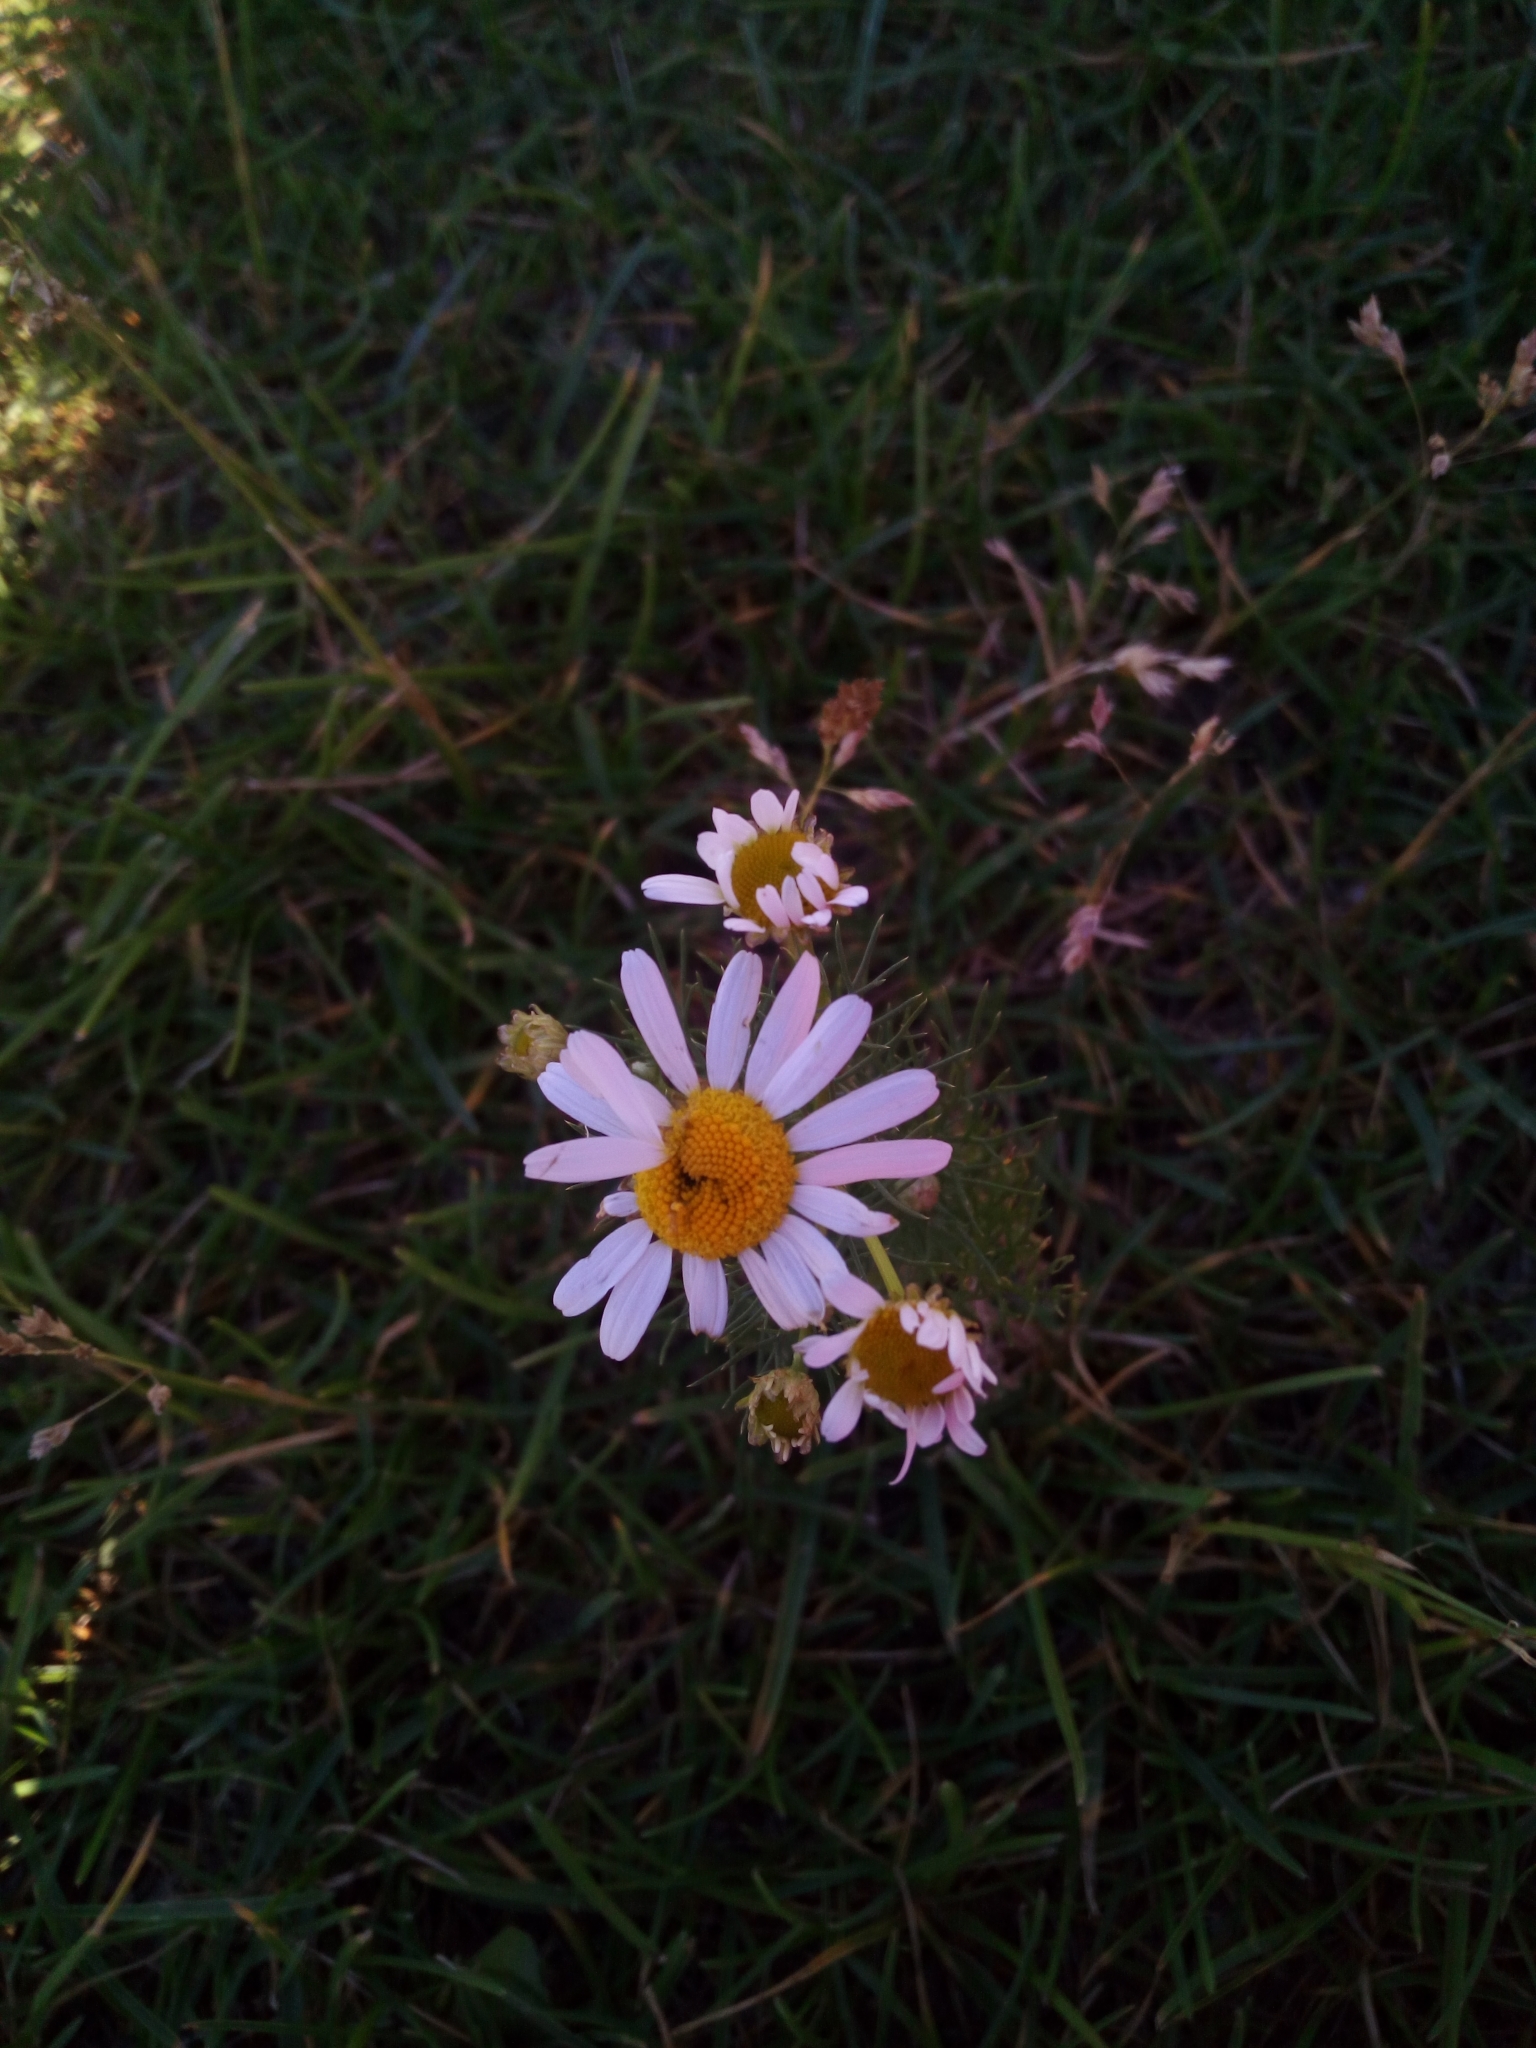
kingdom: Plantae
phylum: Tracheophyta
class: Magnoliopsida
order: Asterales
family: Asteraceae
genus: Tripleurospermum
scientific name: Tripleurospermum inodorum
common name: Scentless mayweed
